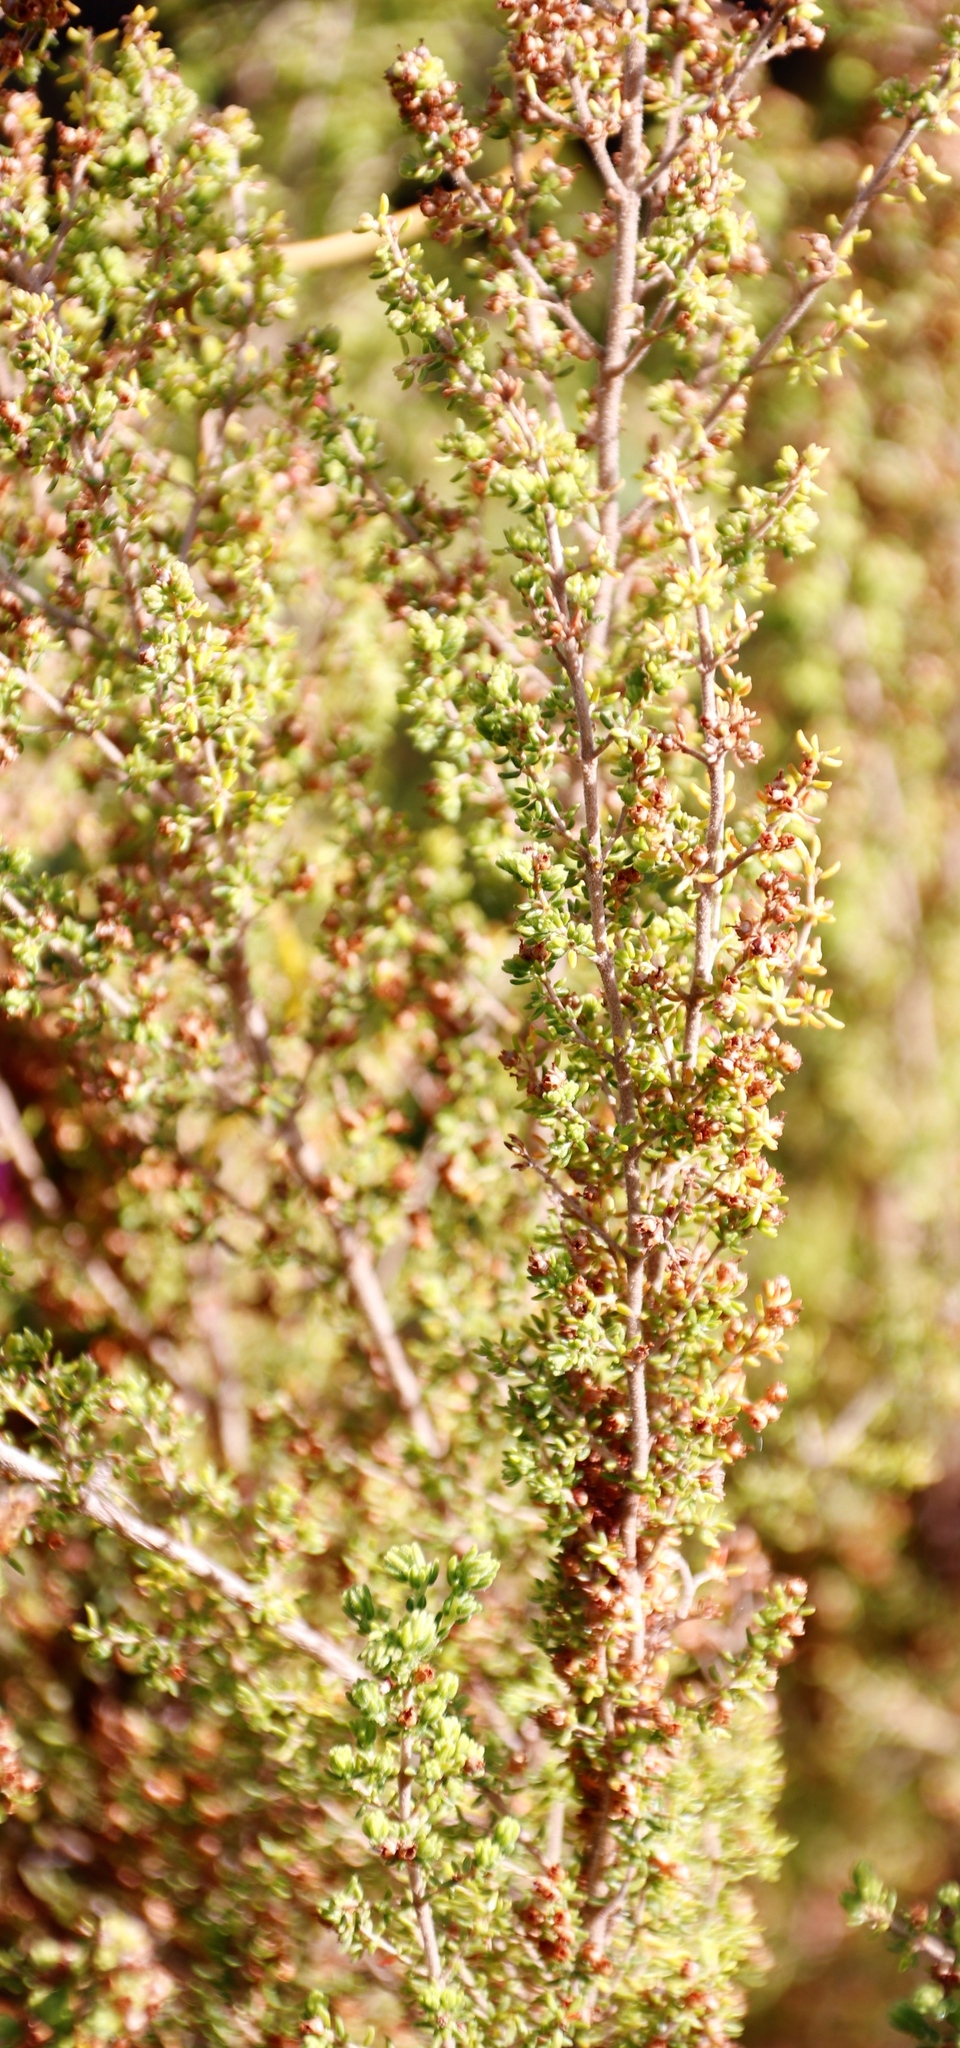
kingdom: Plantae
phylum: Tracheophyta
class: Magnoliopsida
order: Ericales
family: Ericaceae
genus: Erica
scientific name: Erica hispidula
